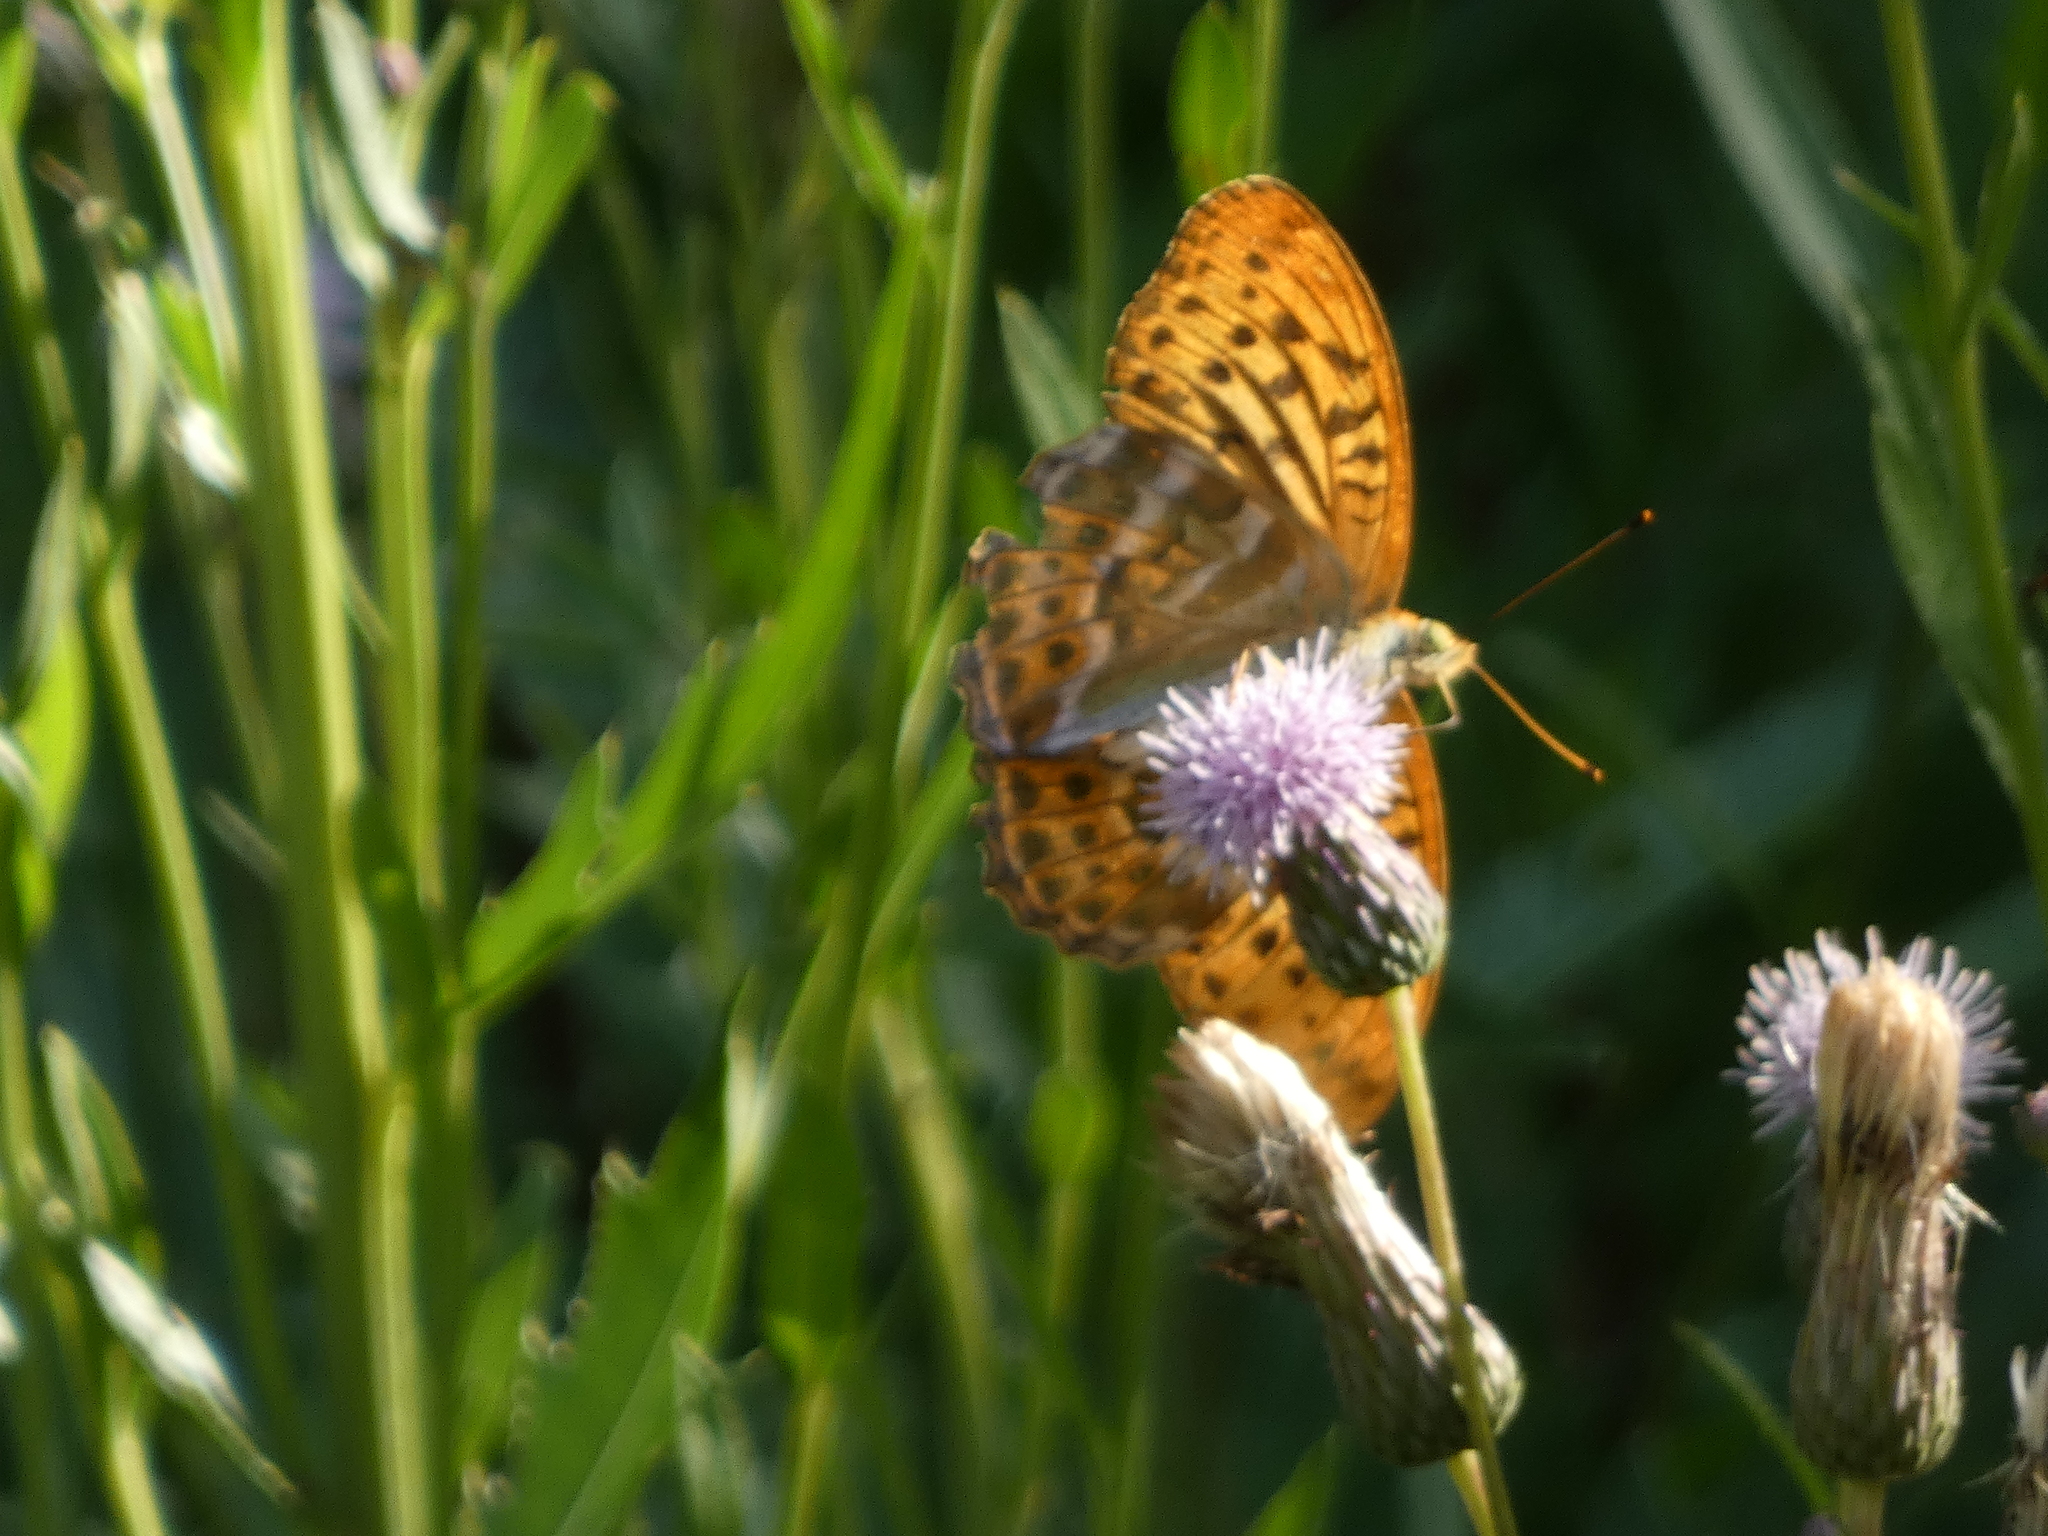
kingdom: Animalia
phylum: Arthropoda
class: Insecta
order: Lepidoptera
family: Nymphalidae
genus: Argynnis
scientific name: Argynnis paphia
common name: Silver-washed fritillary
